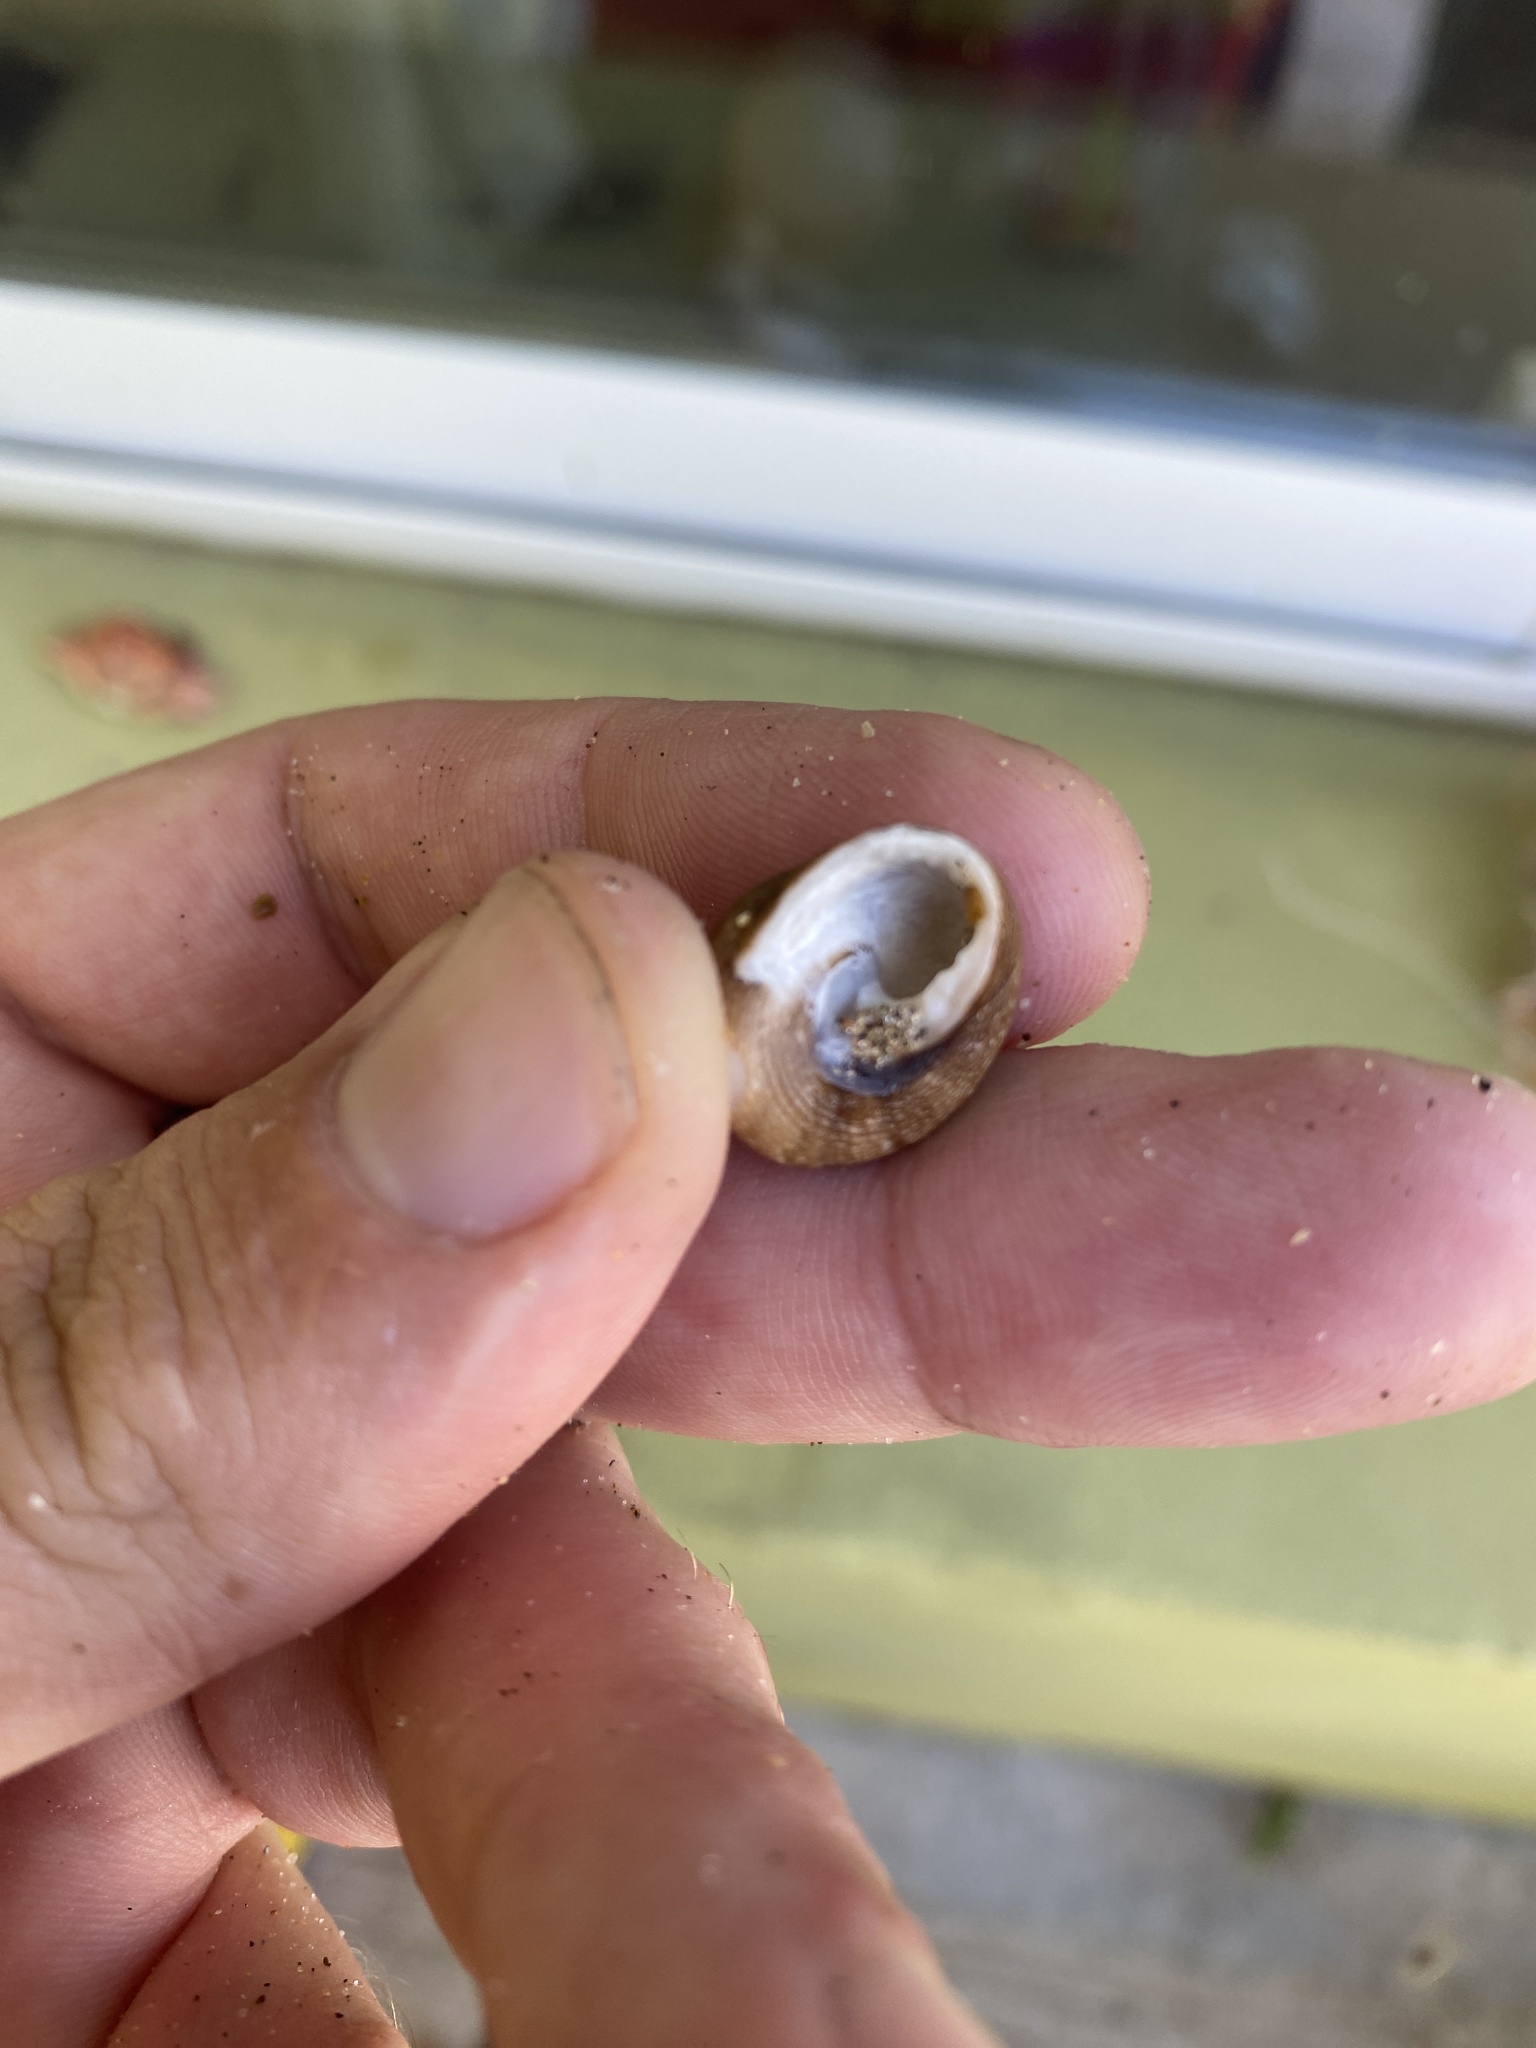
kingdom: Animalia
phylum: Mollusca
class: Gastropoda
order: Trochida
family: Tegulidae
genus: Tegula
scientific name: Tegula patagonica
